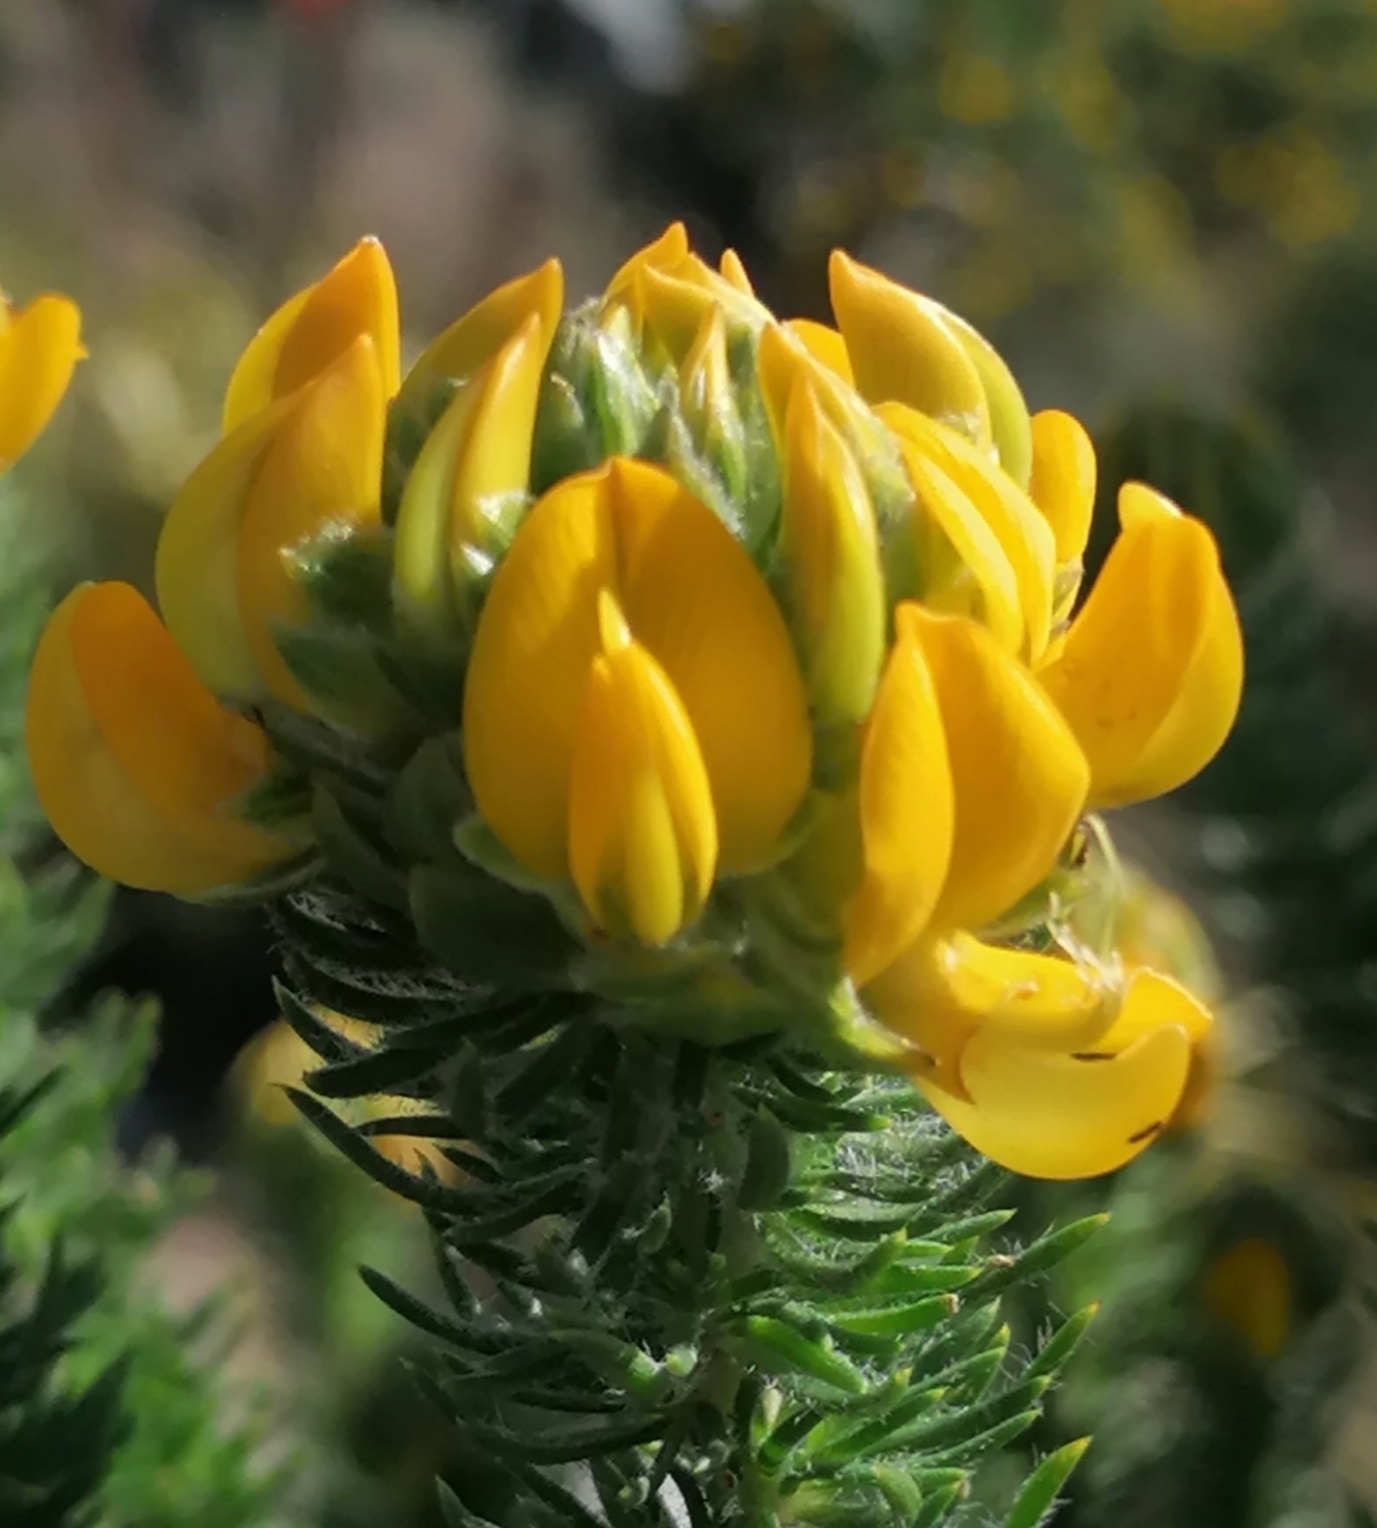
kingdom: Plantae
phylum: Tracheophyta
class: Magnoliopsida
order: Fabales
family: Fabaceae
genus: Aspalathus
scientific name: Aspalathus capitata
